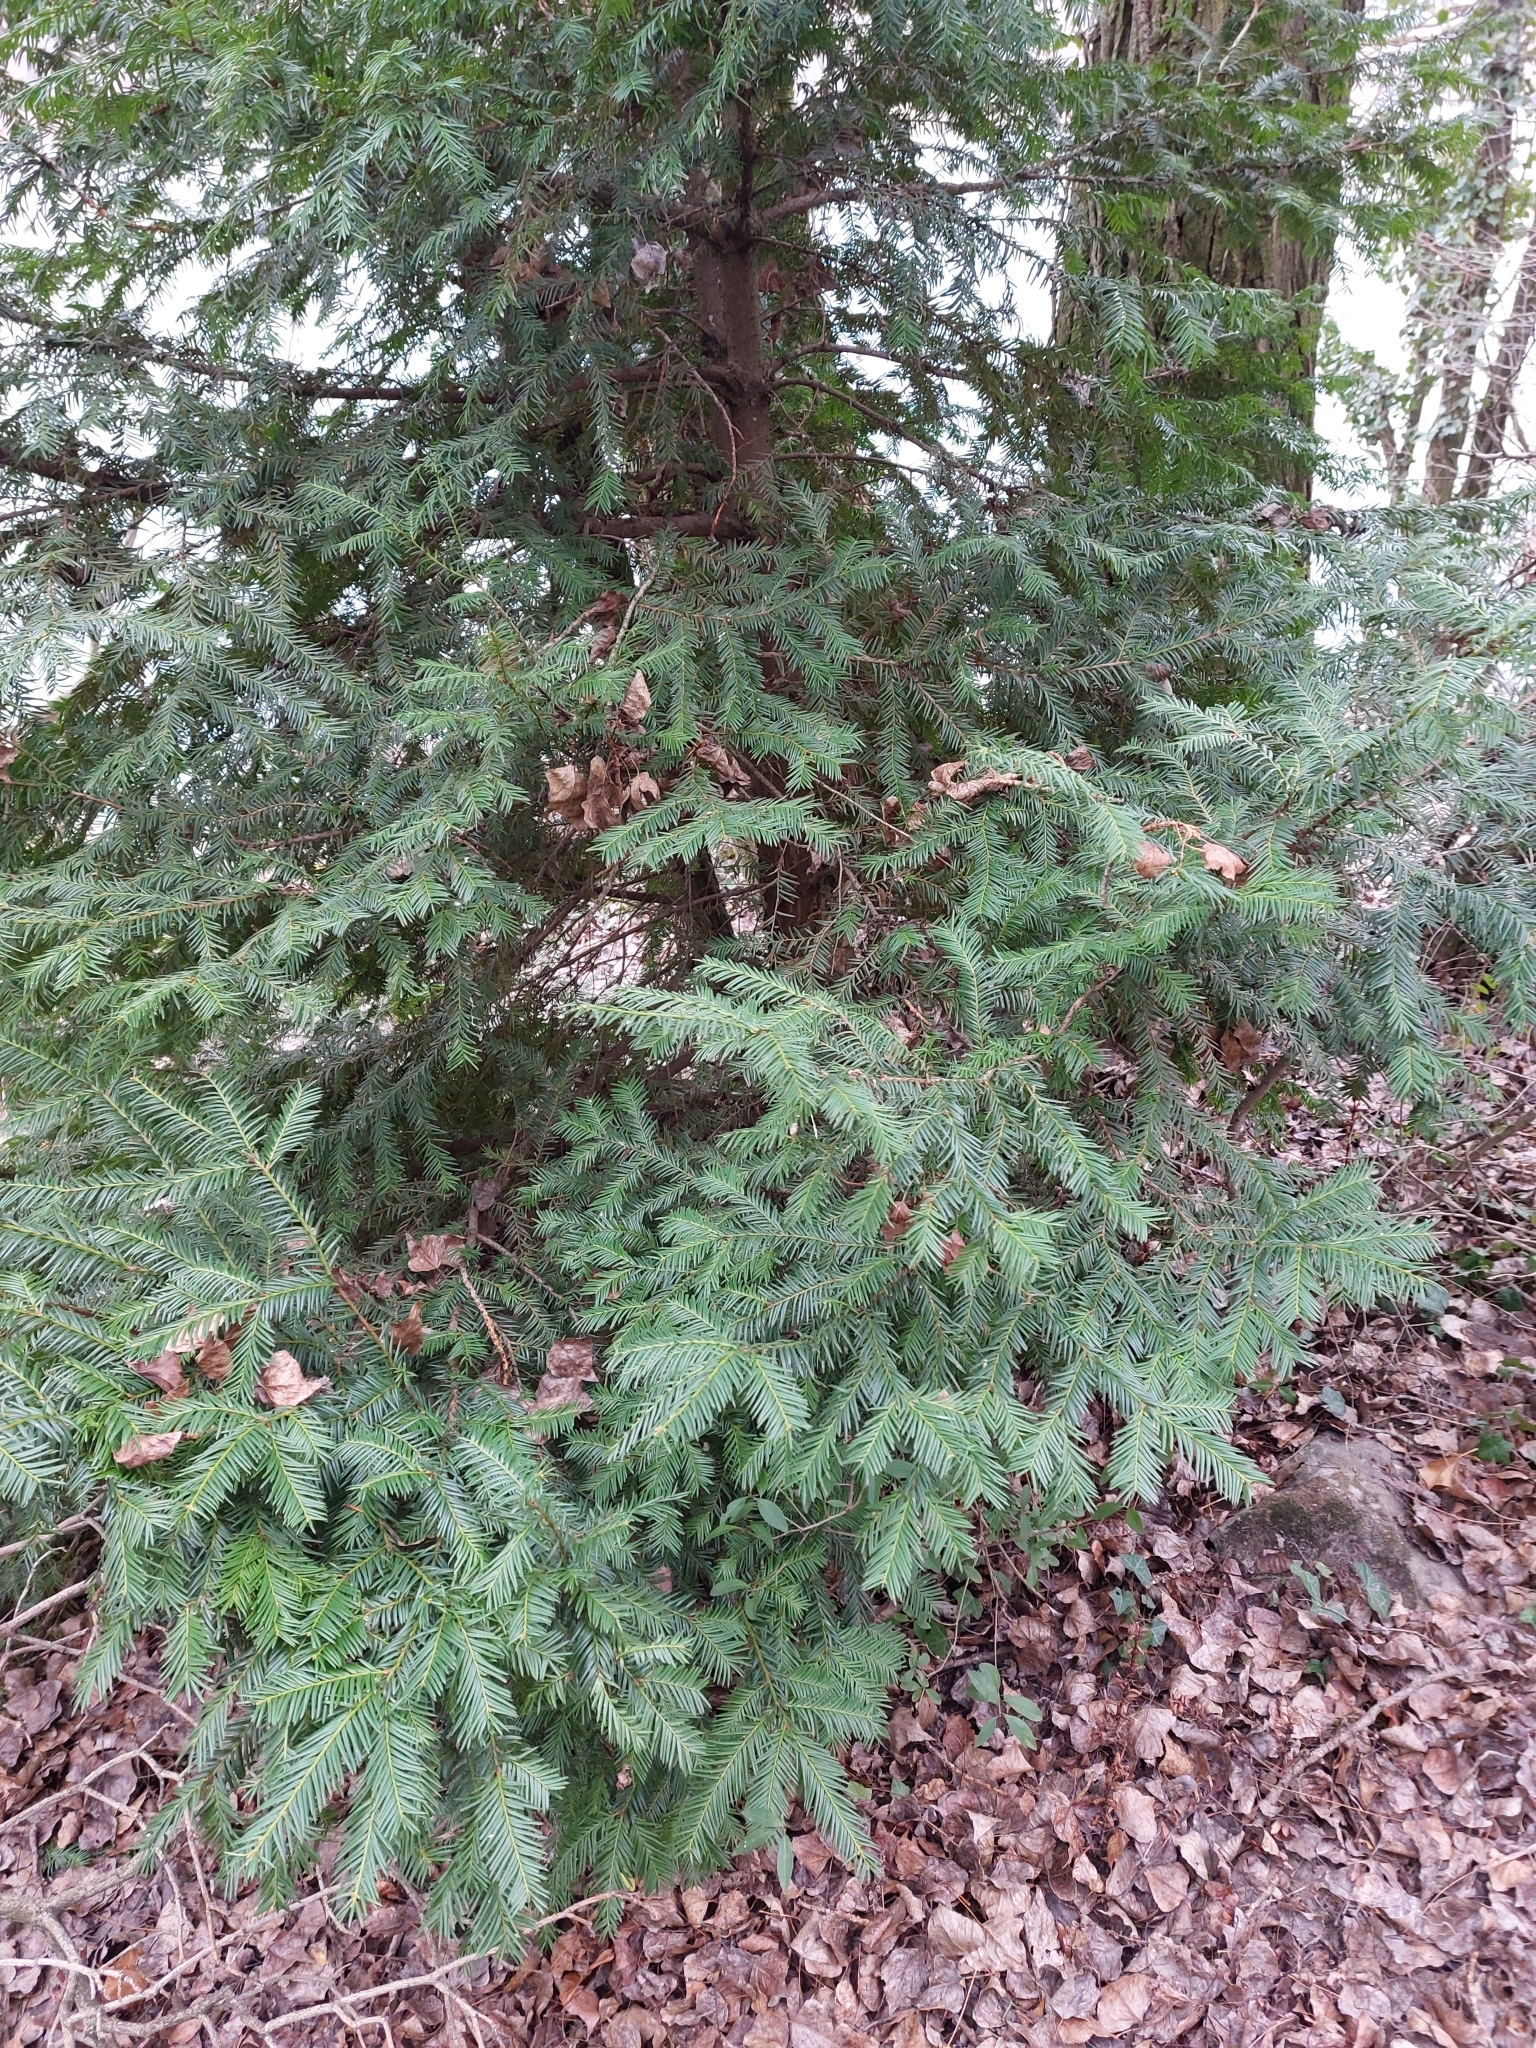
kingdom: Plantae
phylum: Tracheophyta
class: Pinopsida
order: Pinales
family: Taxaceae
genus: Taxus
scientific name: Taxus baccata
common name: Yew
